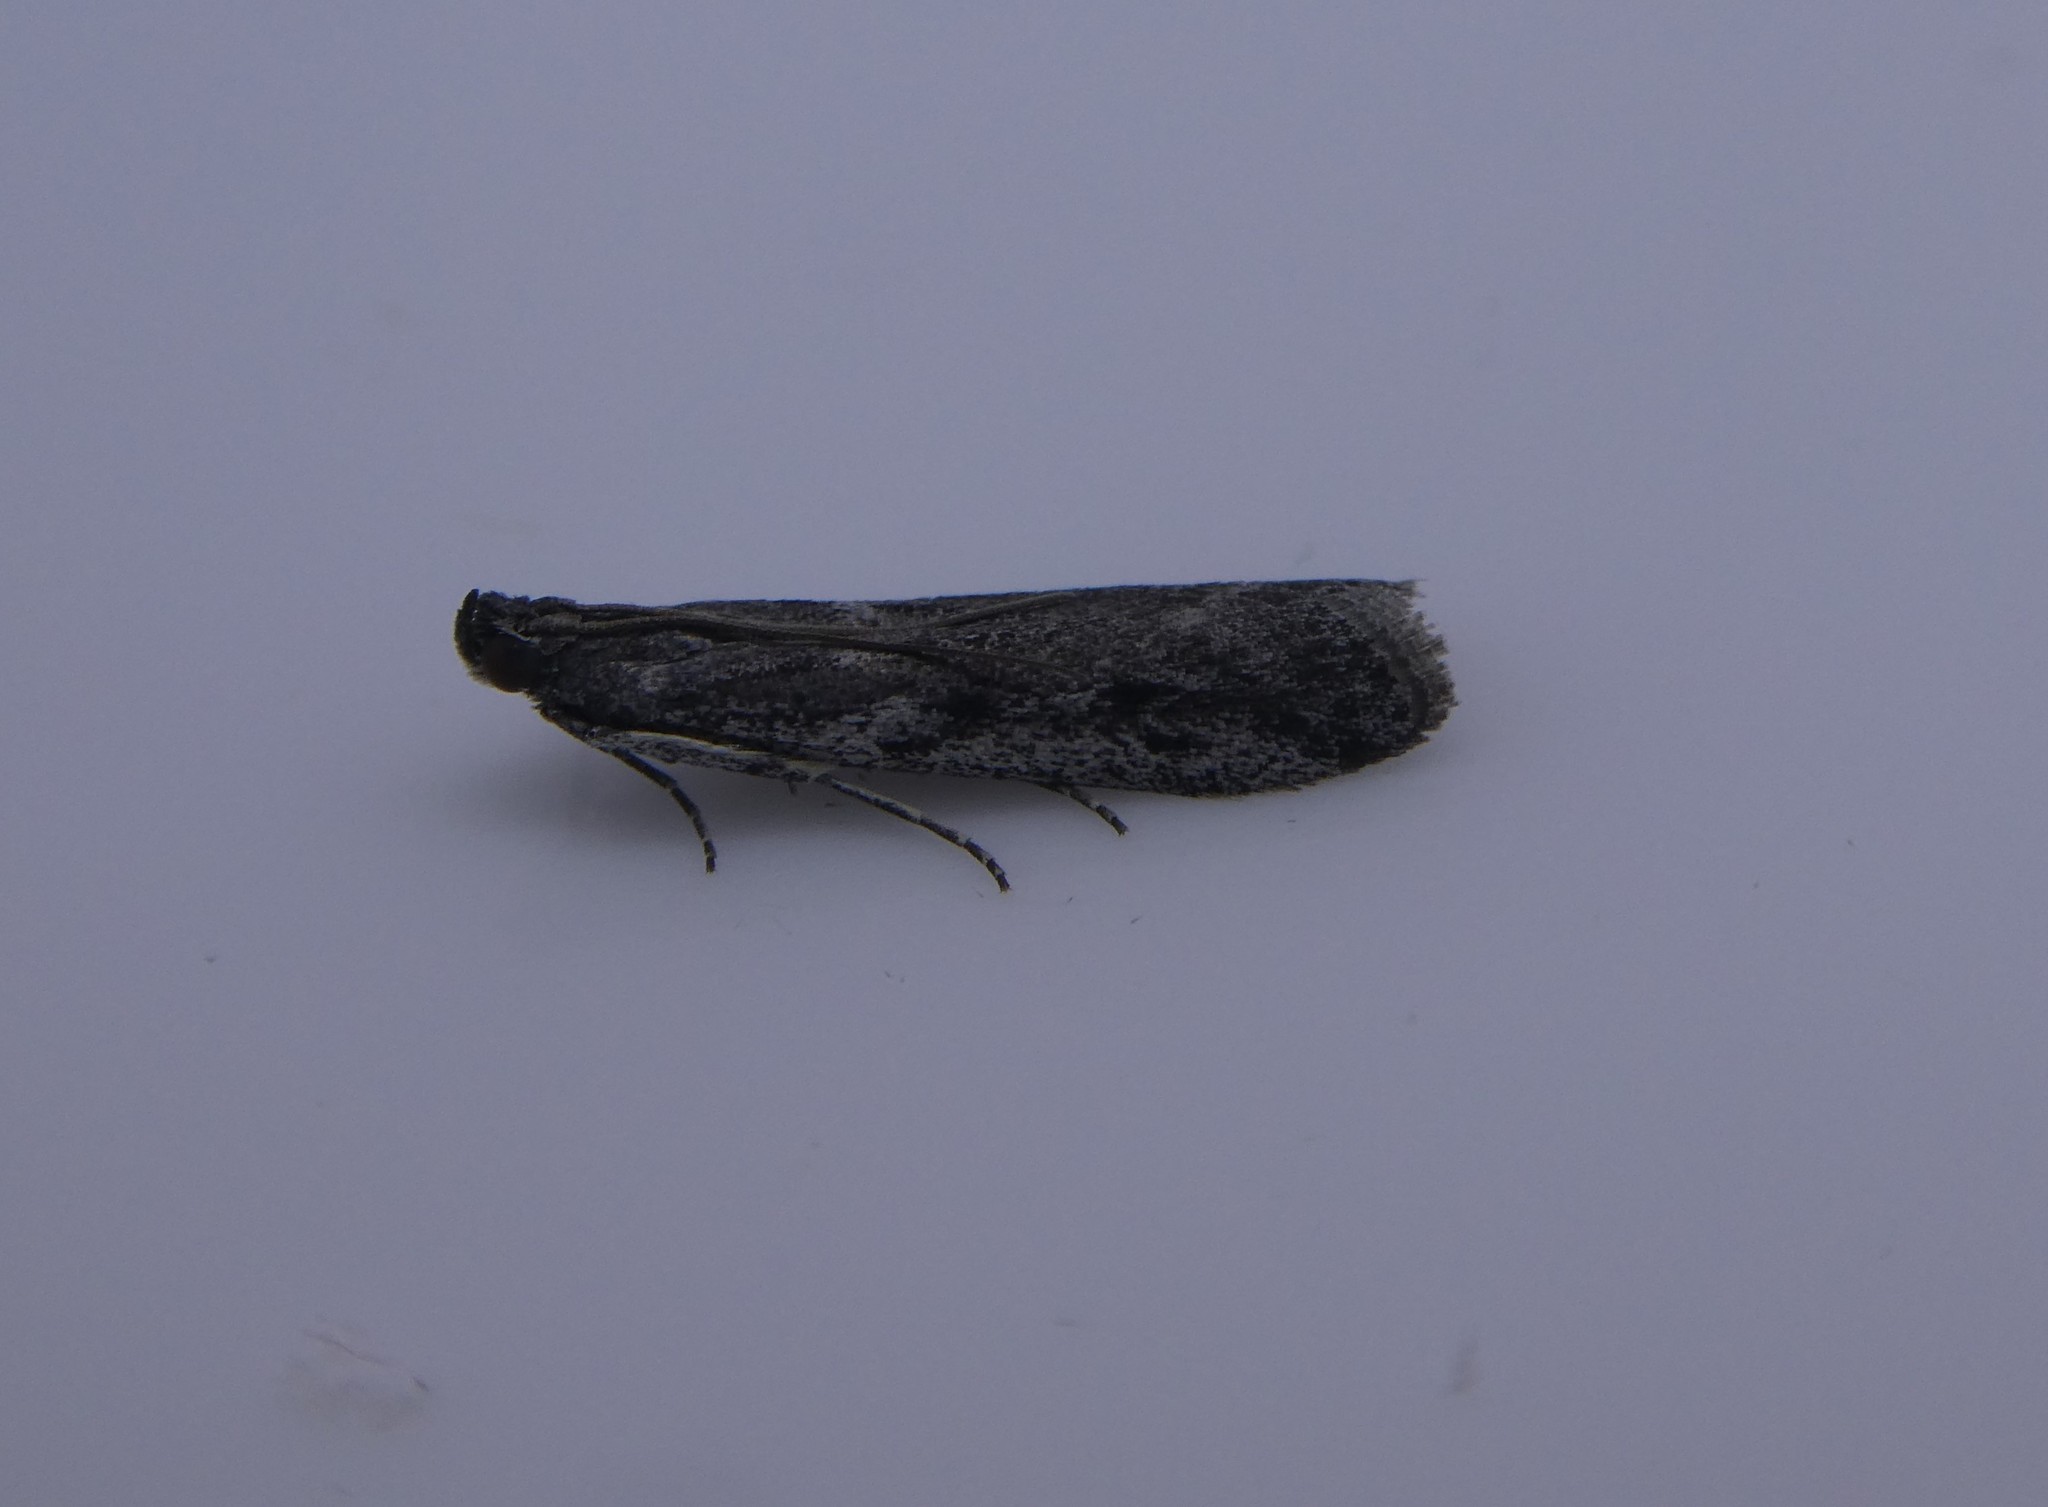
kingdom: Animalia
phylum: Arthropoda
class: Insecta
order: Lepidoptera
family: Pyralidae
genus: Phycitodes
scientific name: Phycitodes mucidellus
